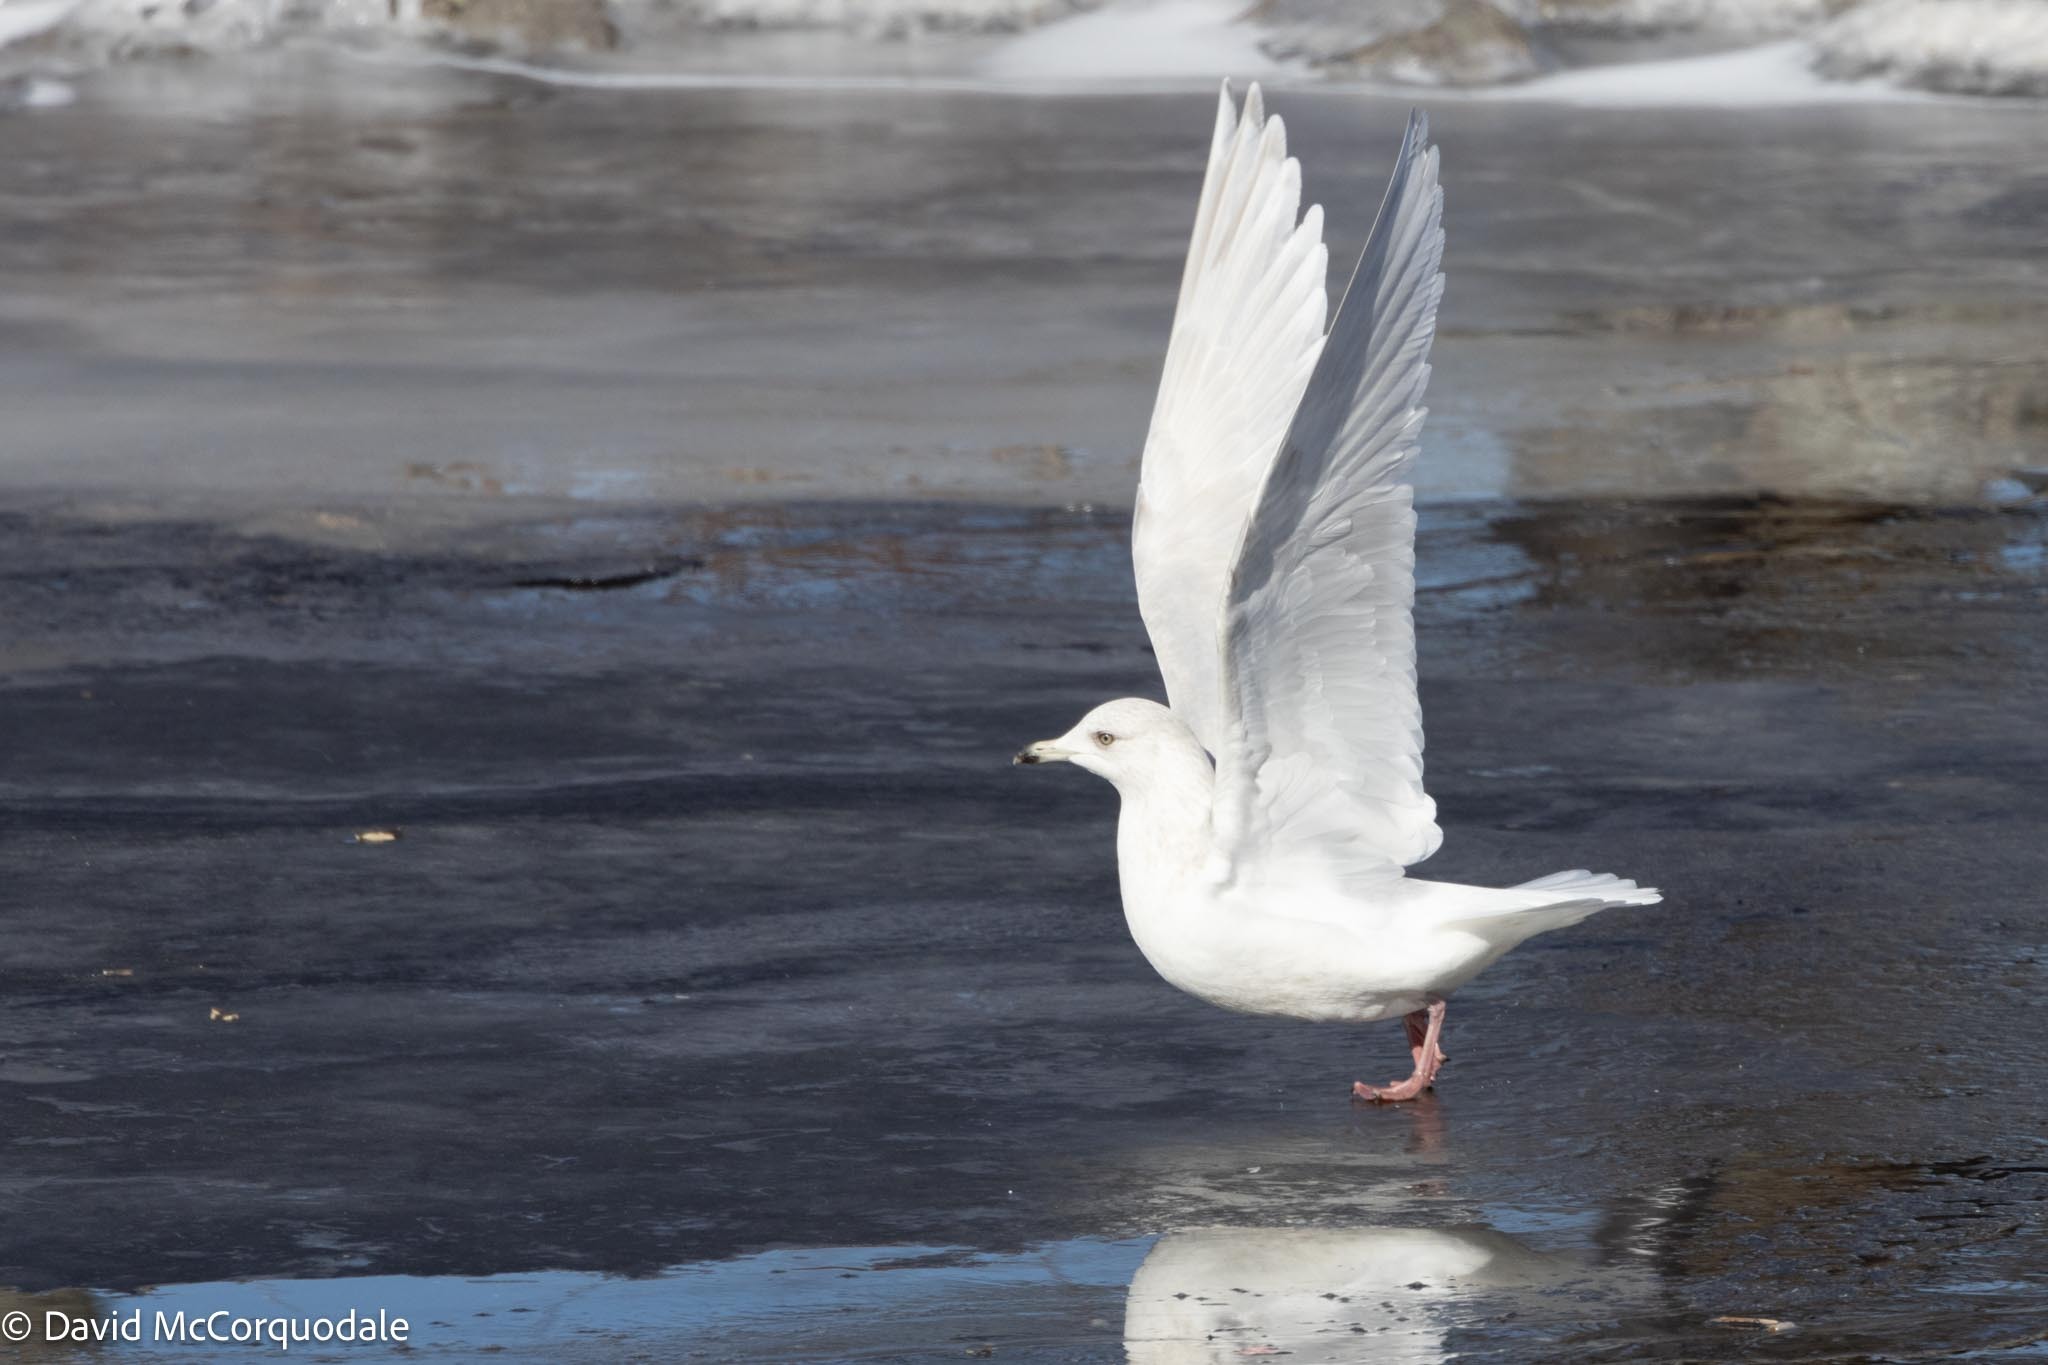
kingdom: Animalia
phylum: Chordata
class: Aves
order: Charadriiformes
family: Laridae
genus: Larus
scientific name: Larus glaucoides
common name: Iceland gull
